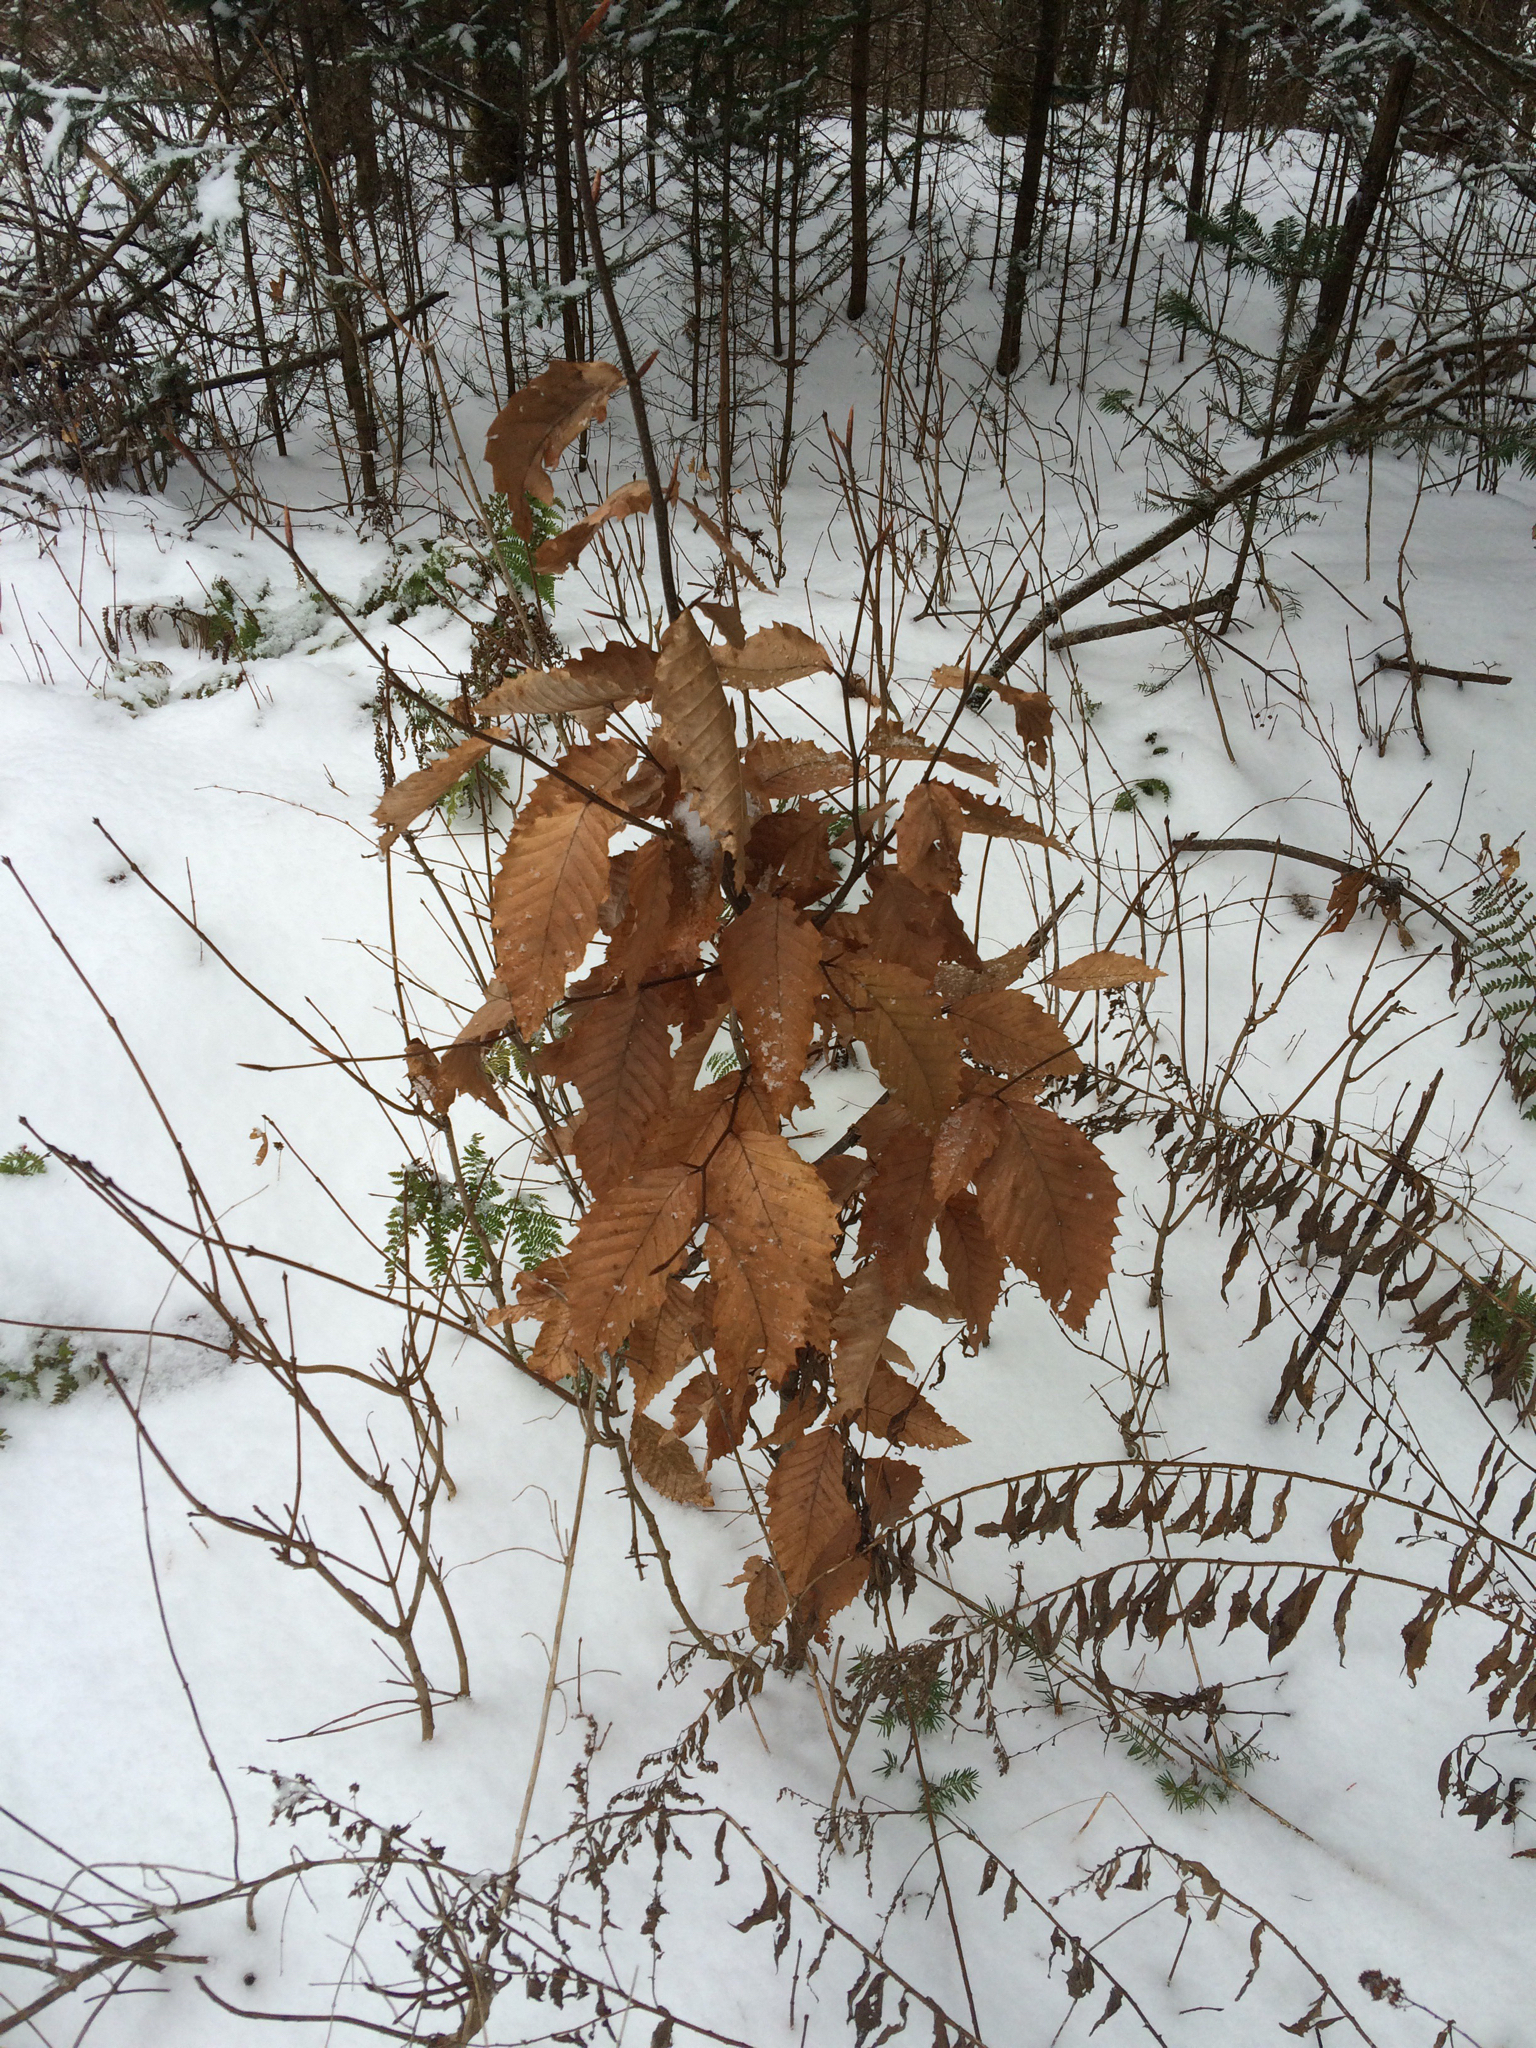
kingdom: Plantae
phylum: Tracheophyta
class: Magnoliopsida
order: Fagales
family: Fagaceae
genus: Fagus
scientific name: Fagus grandifolia
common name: American beech
